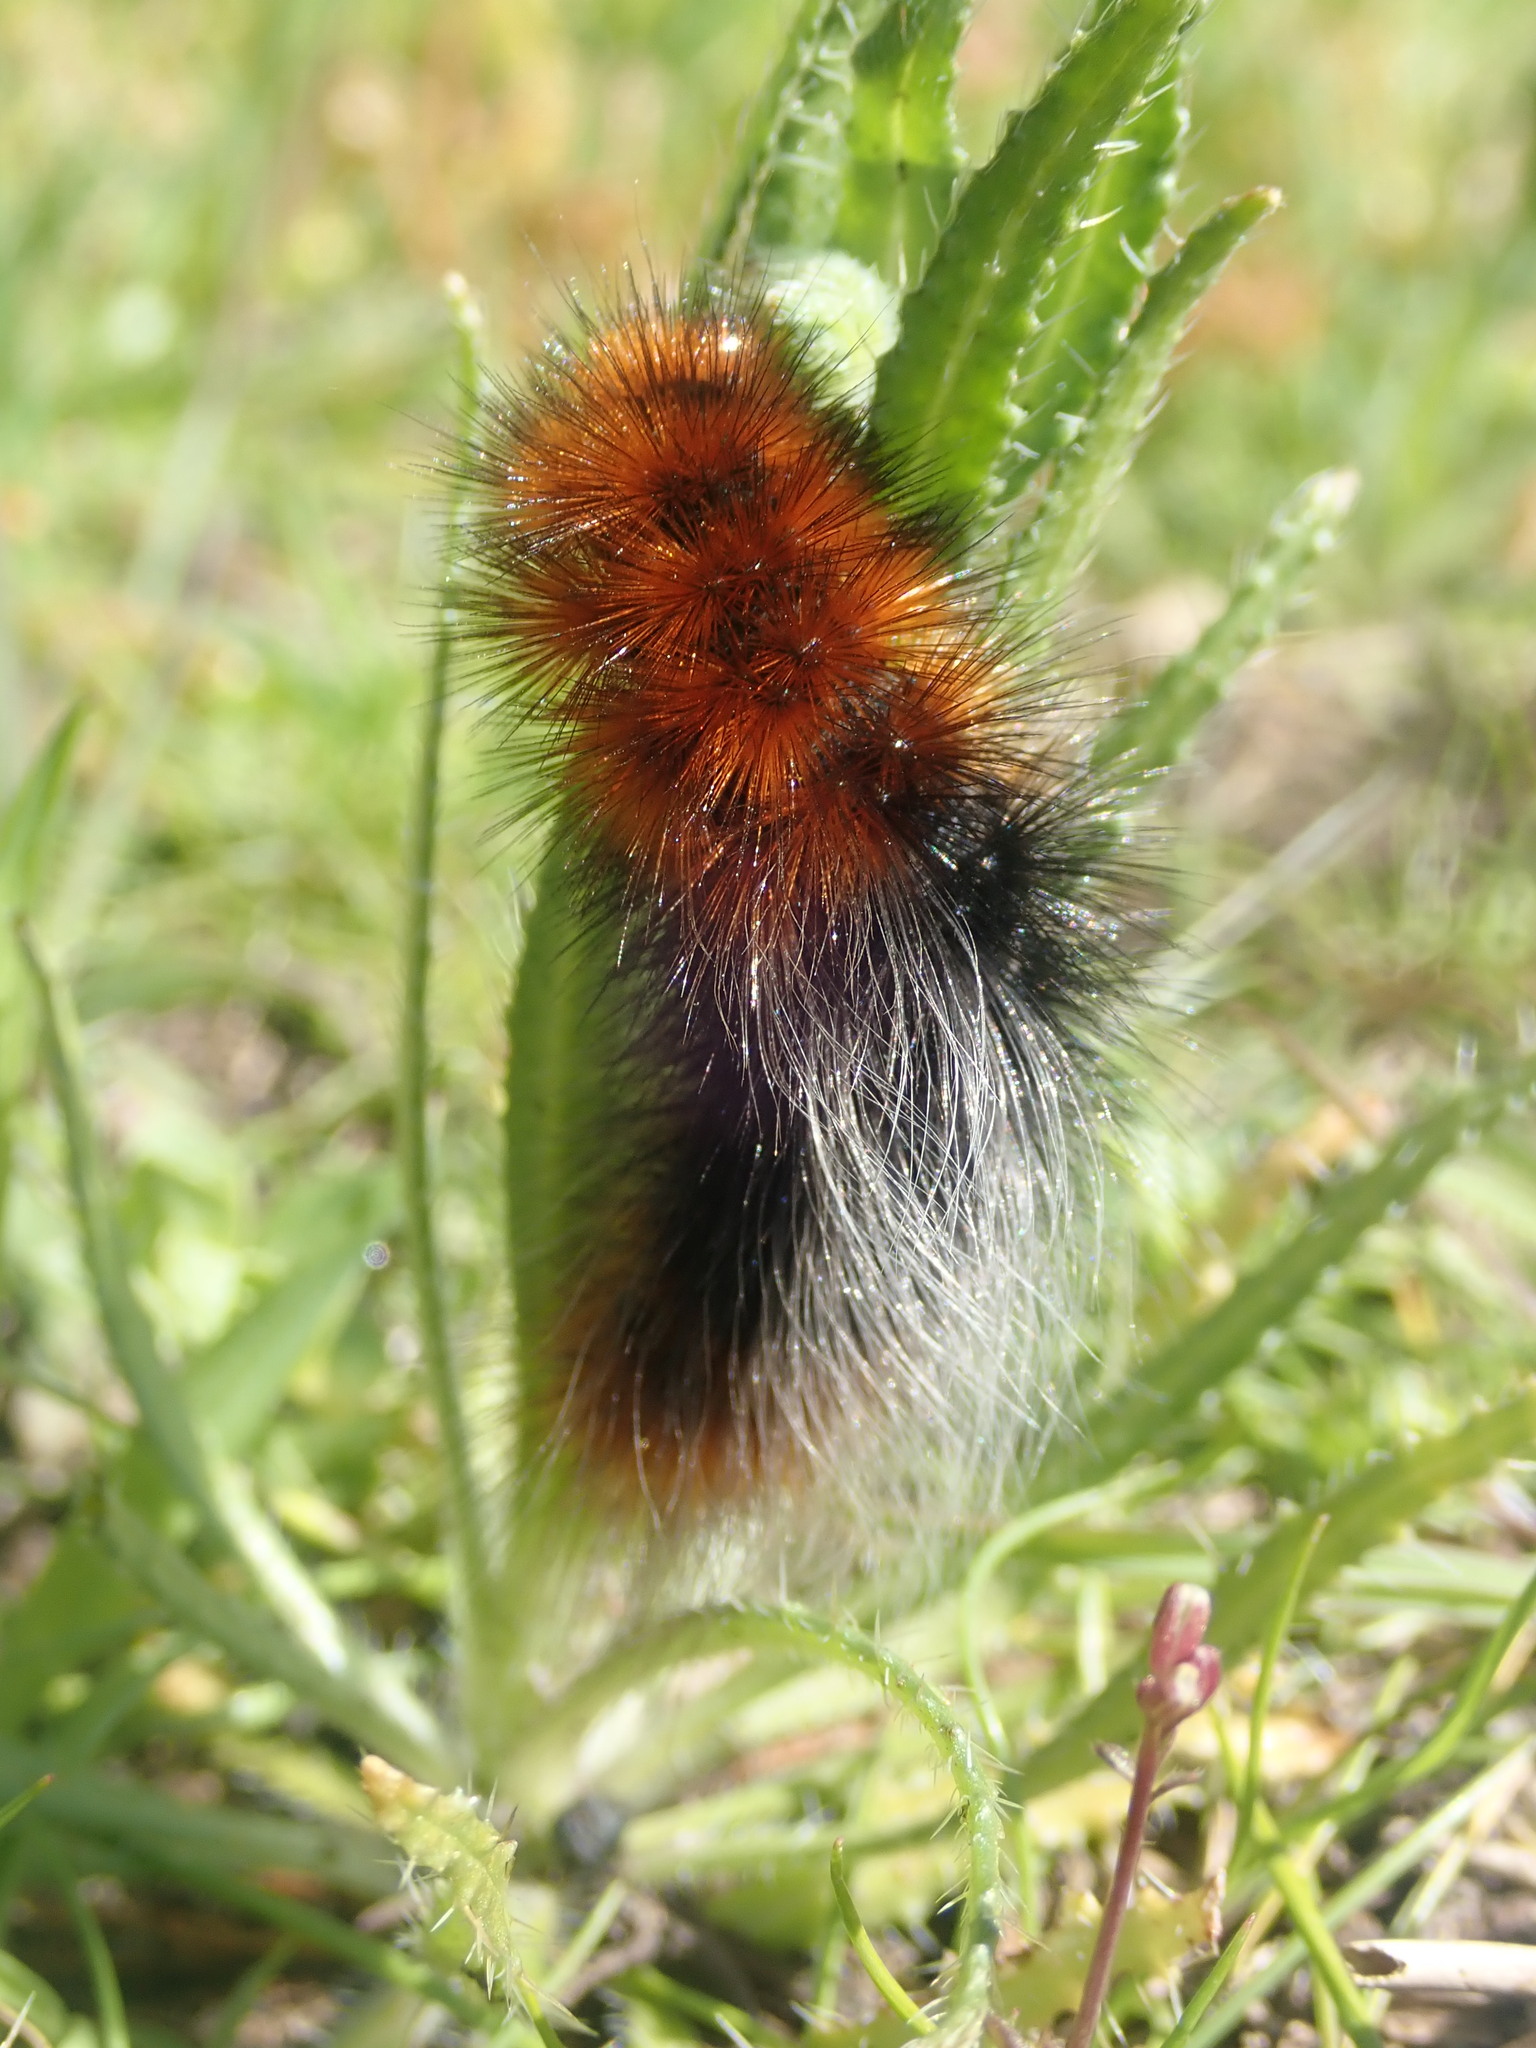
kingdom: Animalia
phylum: Arthropoda
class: Insecta
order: Lepidoptera
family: Erebidae
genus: Arctia
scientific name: Arctia tigrina
